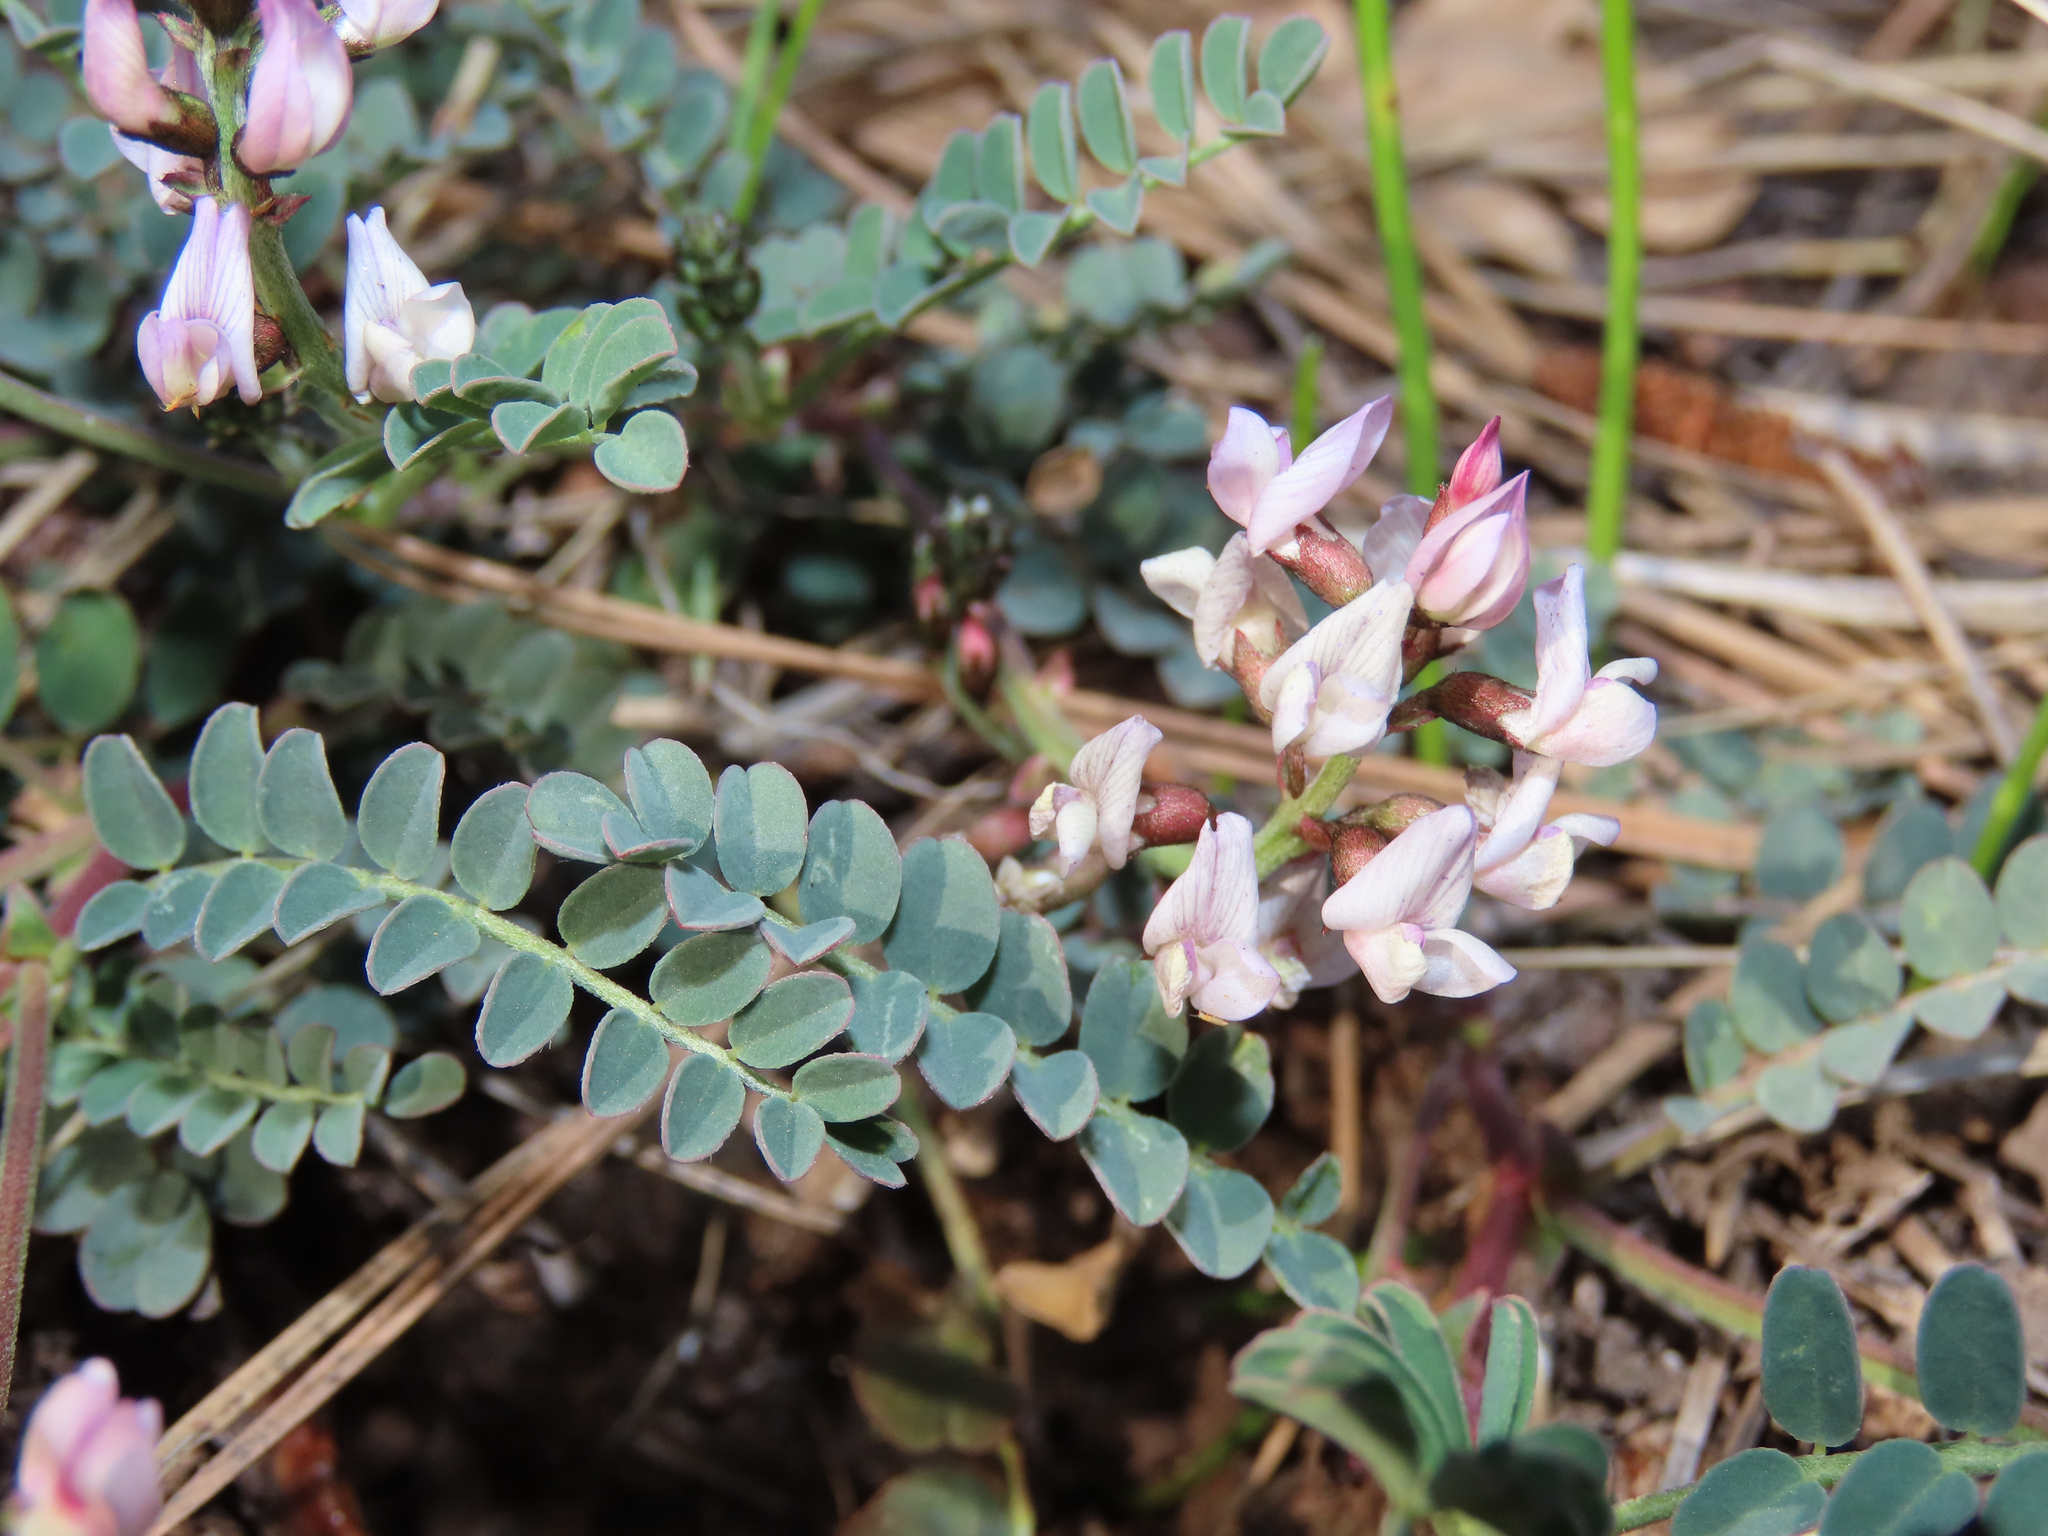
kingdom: Plantae
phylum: Tracheophyta
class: Magnoliopsida
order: Fabales
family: Fabaceae
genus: Astragalus
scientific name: Astragalus cobrensis
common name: Copper mine milkvetch
